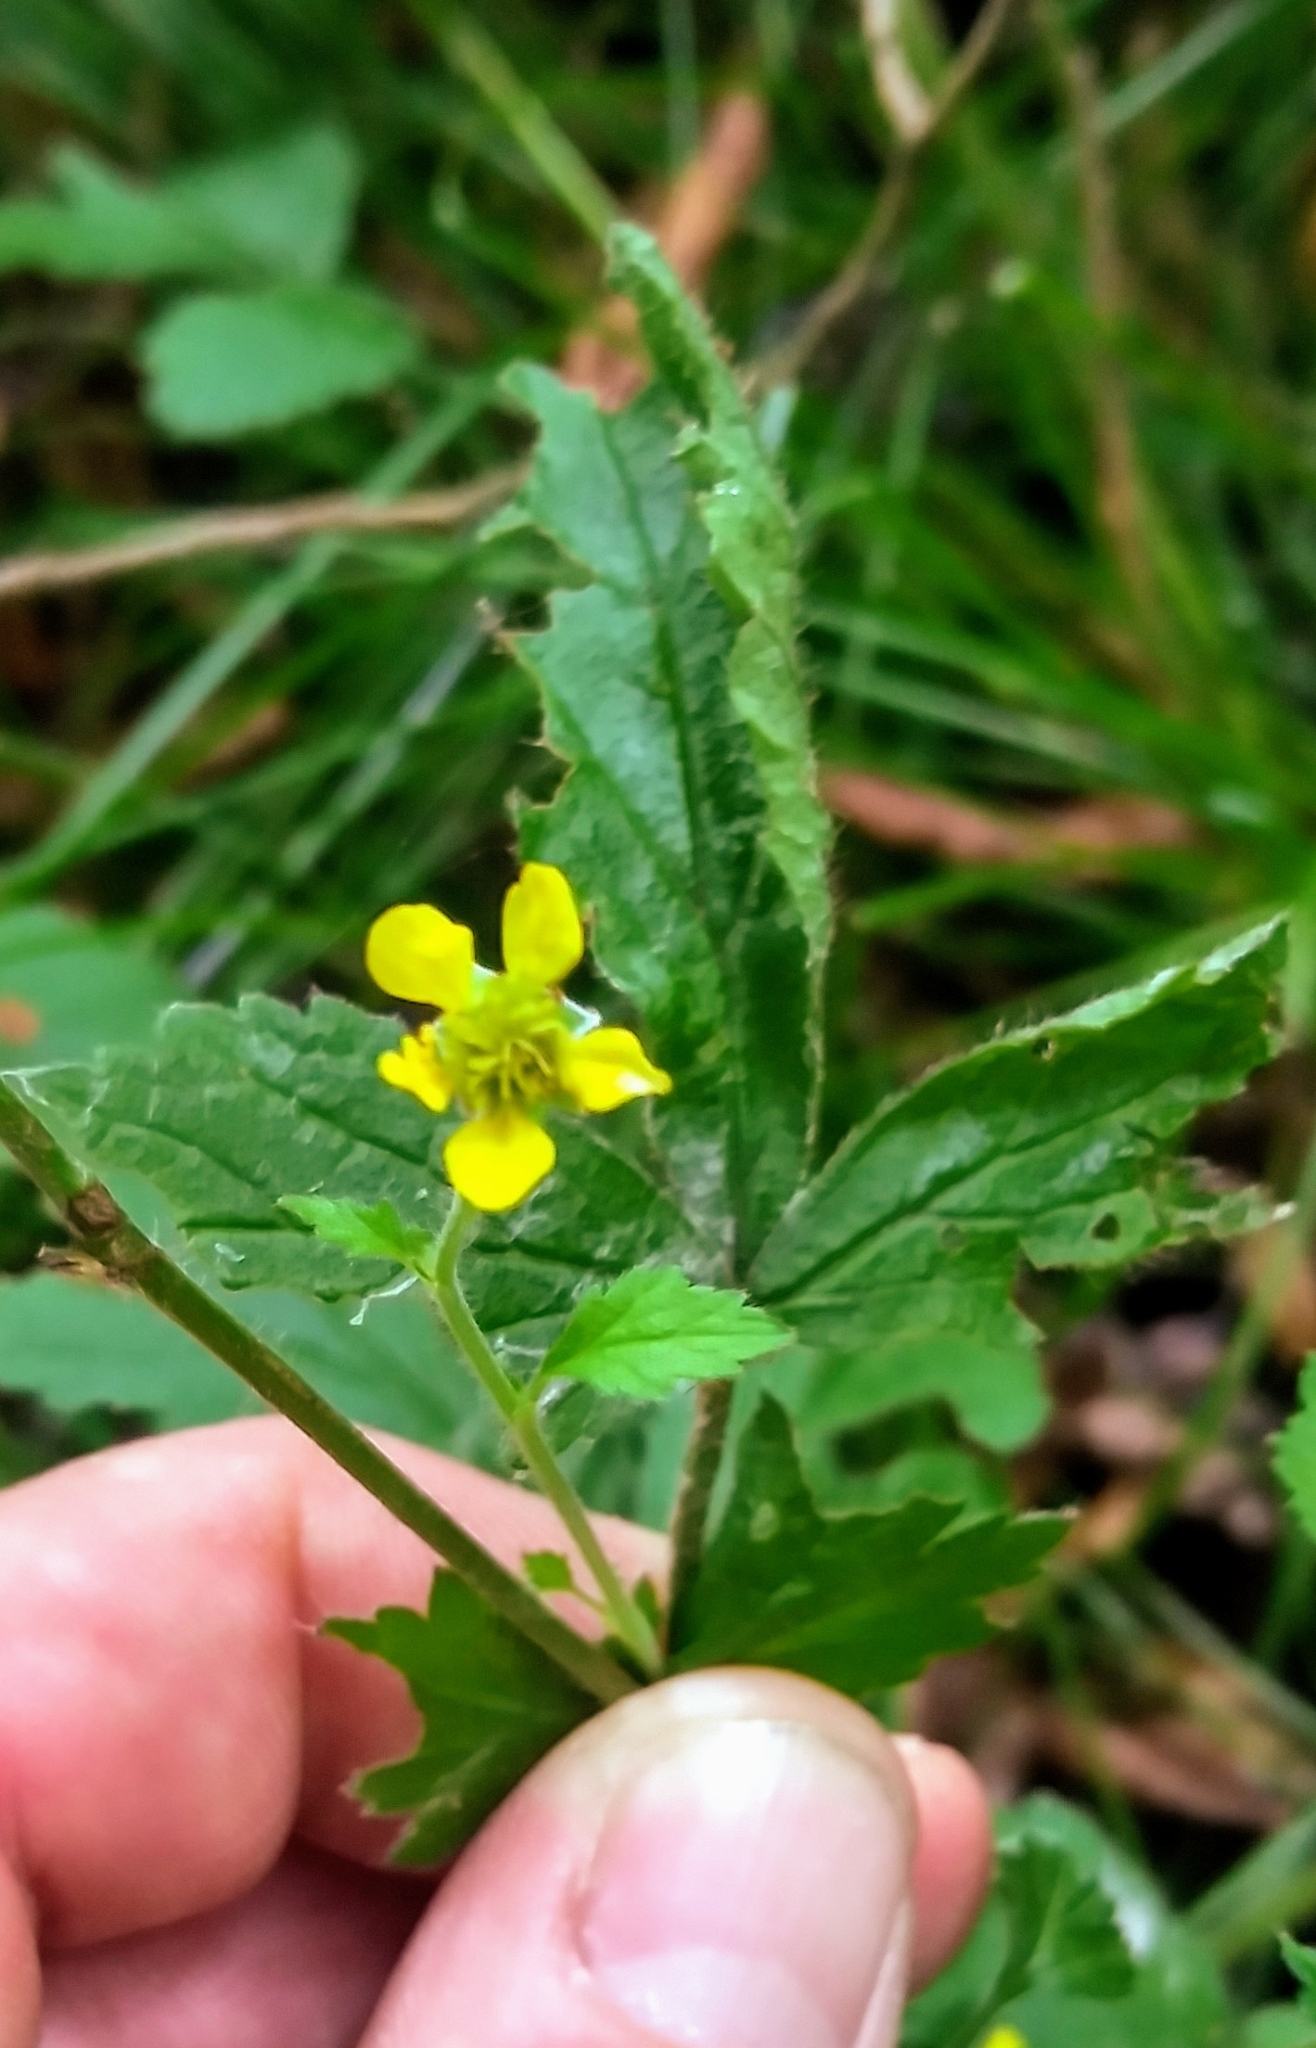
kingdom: Plantae
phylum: Tracheophyta
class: Magnoliopsida
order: Rosales
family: Rosaceae
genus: Geum
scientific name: Geum urbanum
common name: Wood avens
